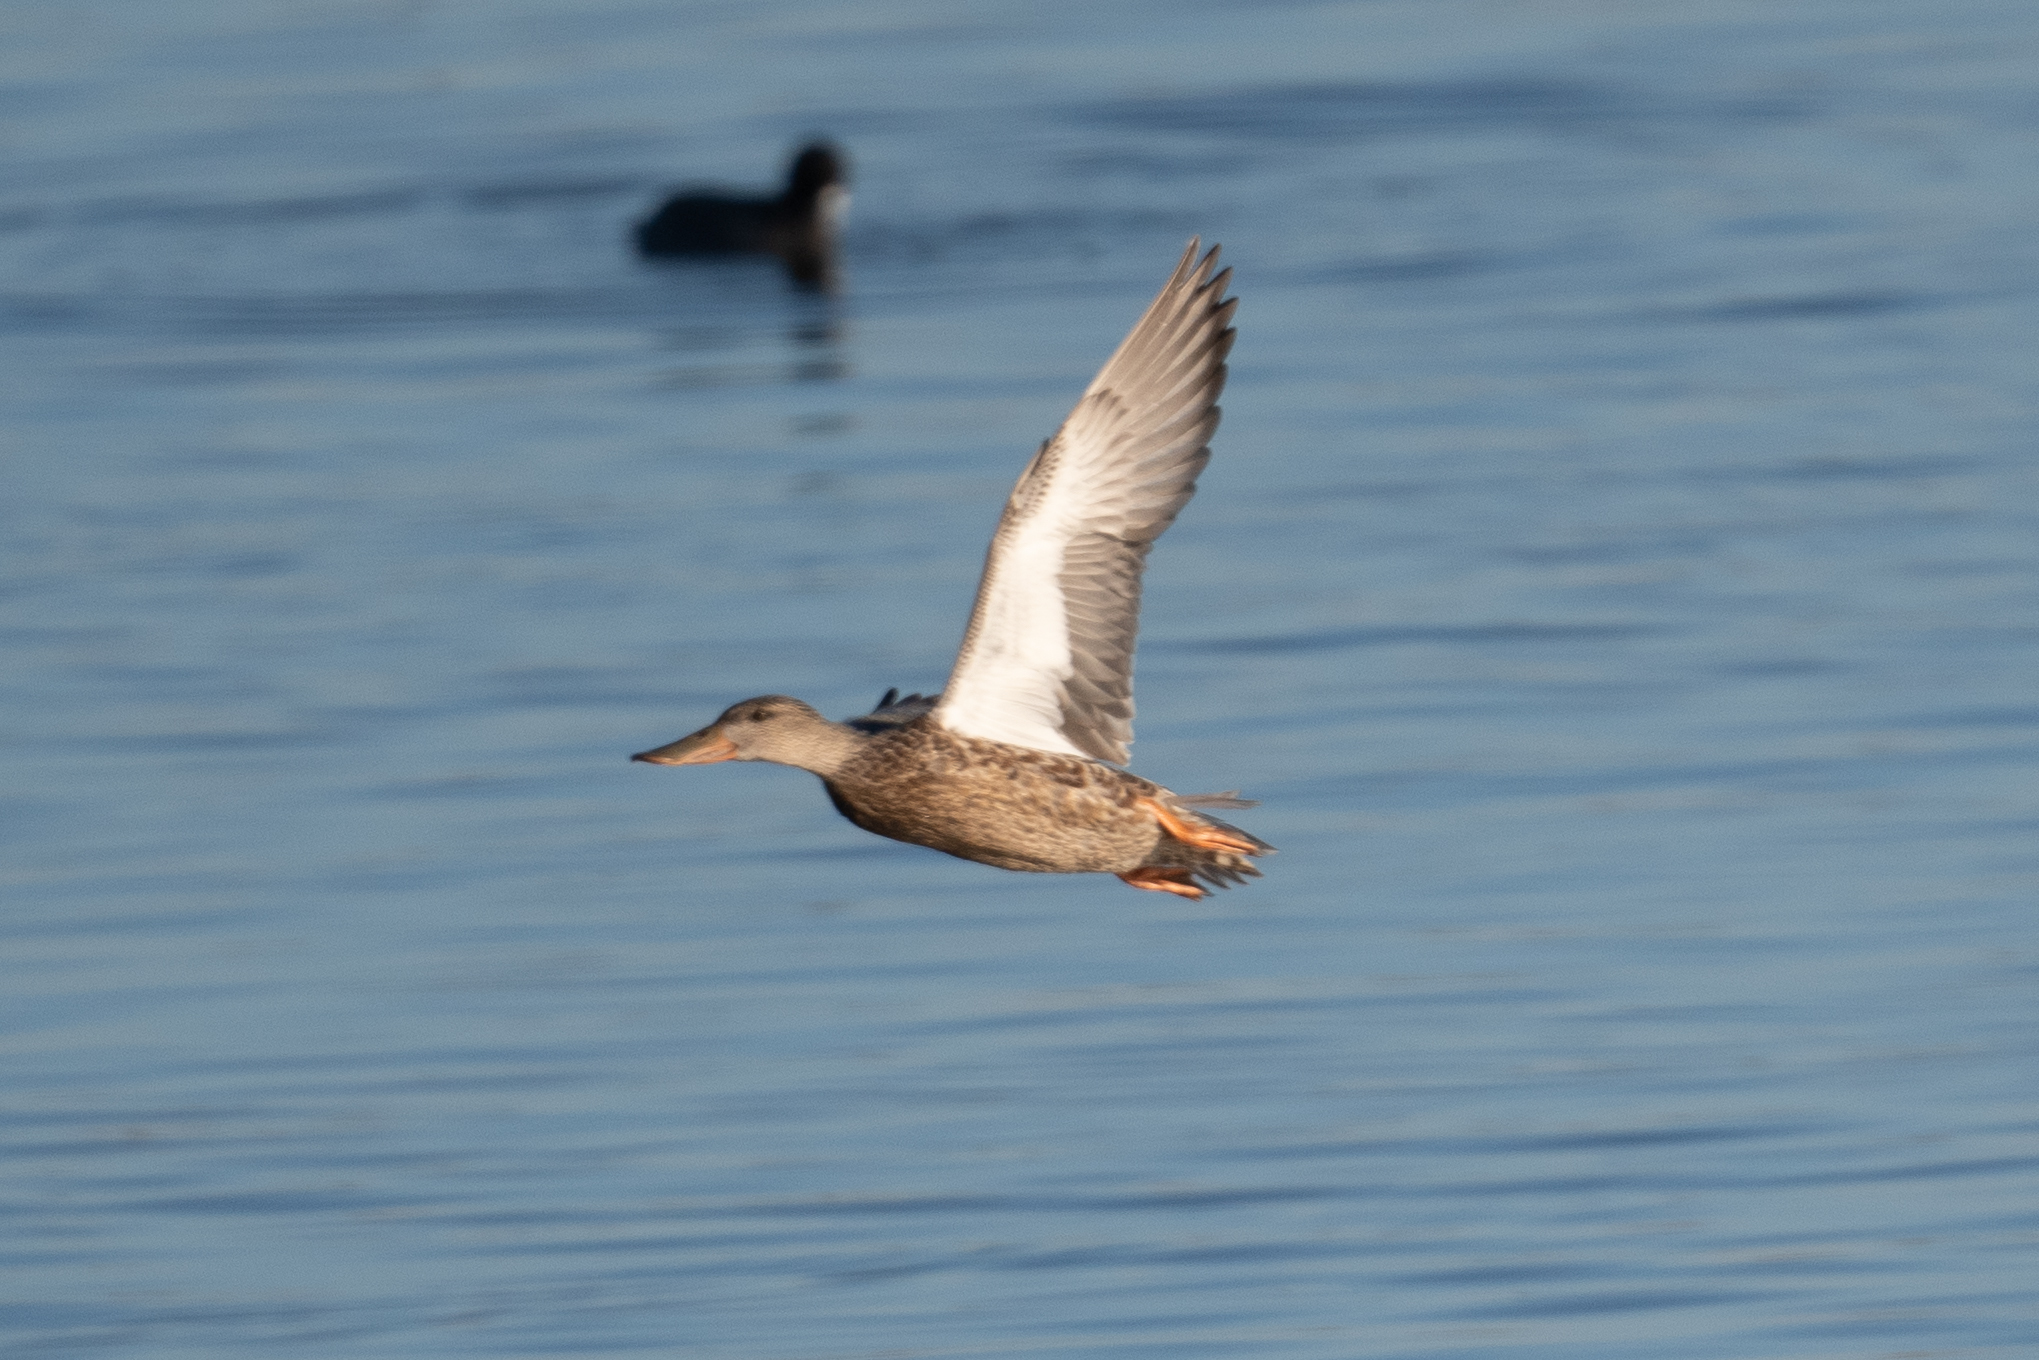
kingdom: Animalia
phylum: Chordata
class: Aves
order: Anseriformes
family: Anatidae
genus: Spatula
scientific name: Spatula clypeata
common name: Northern shoveler
